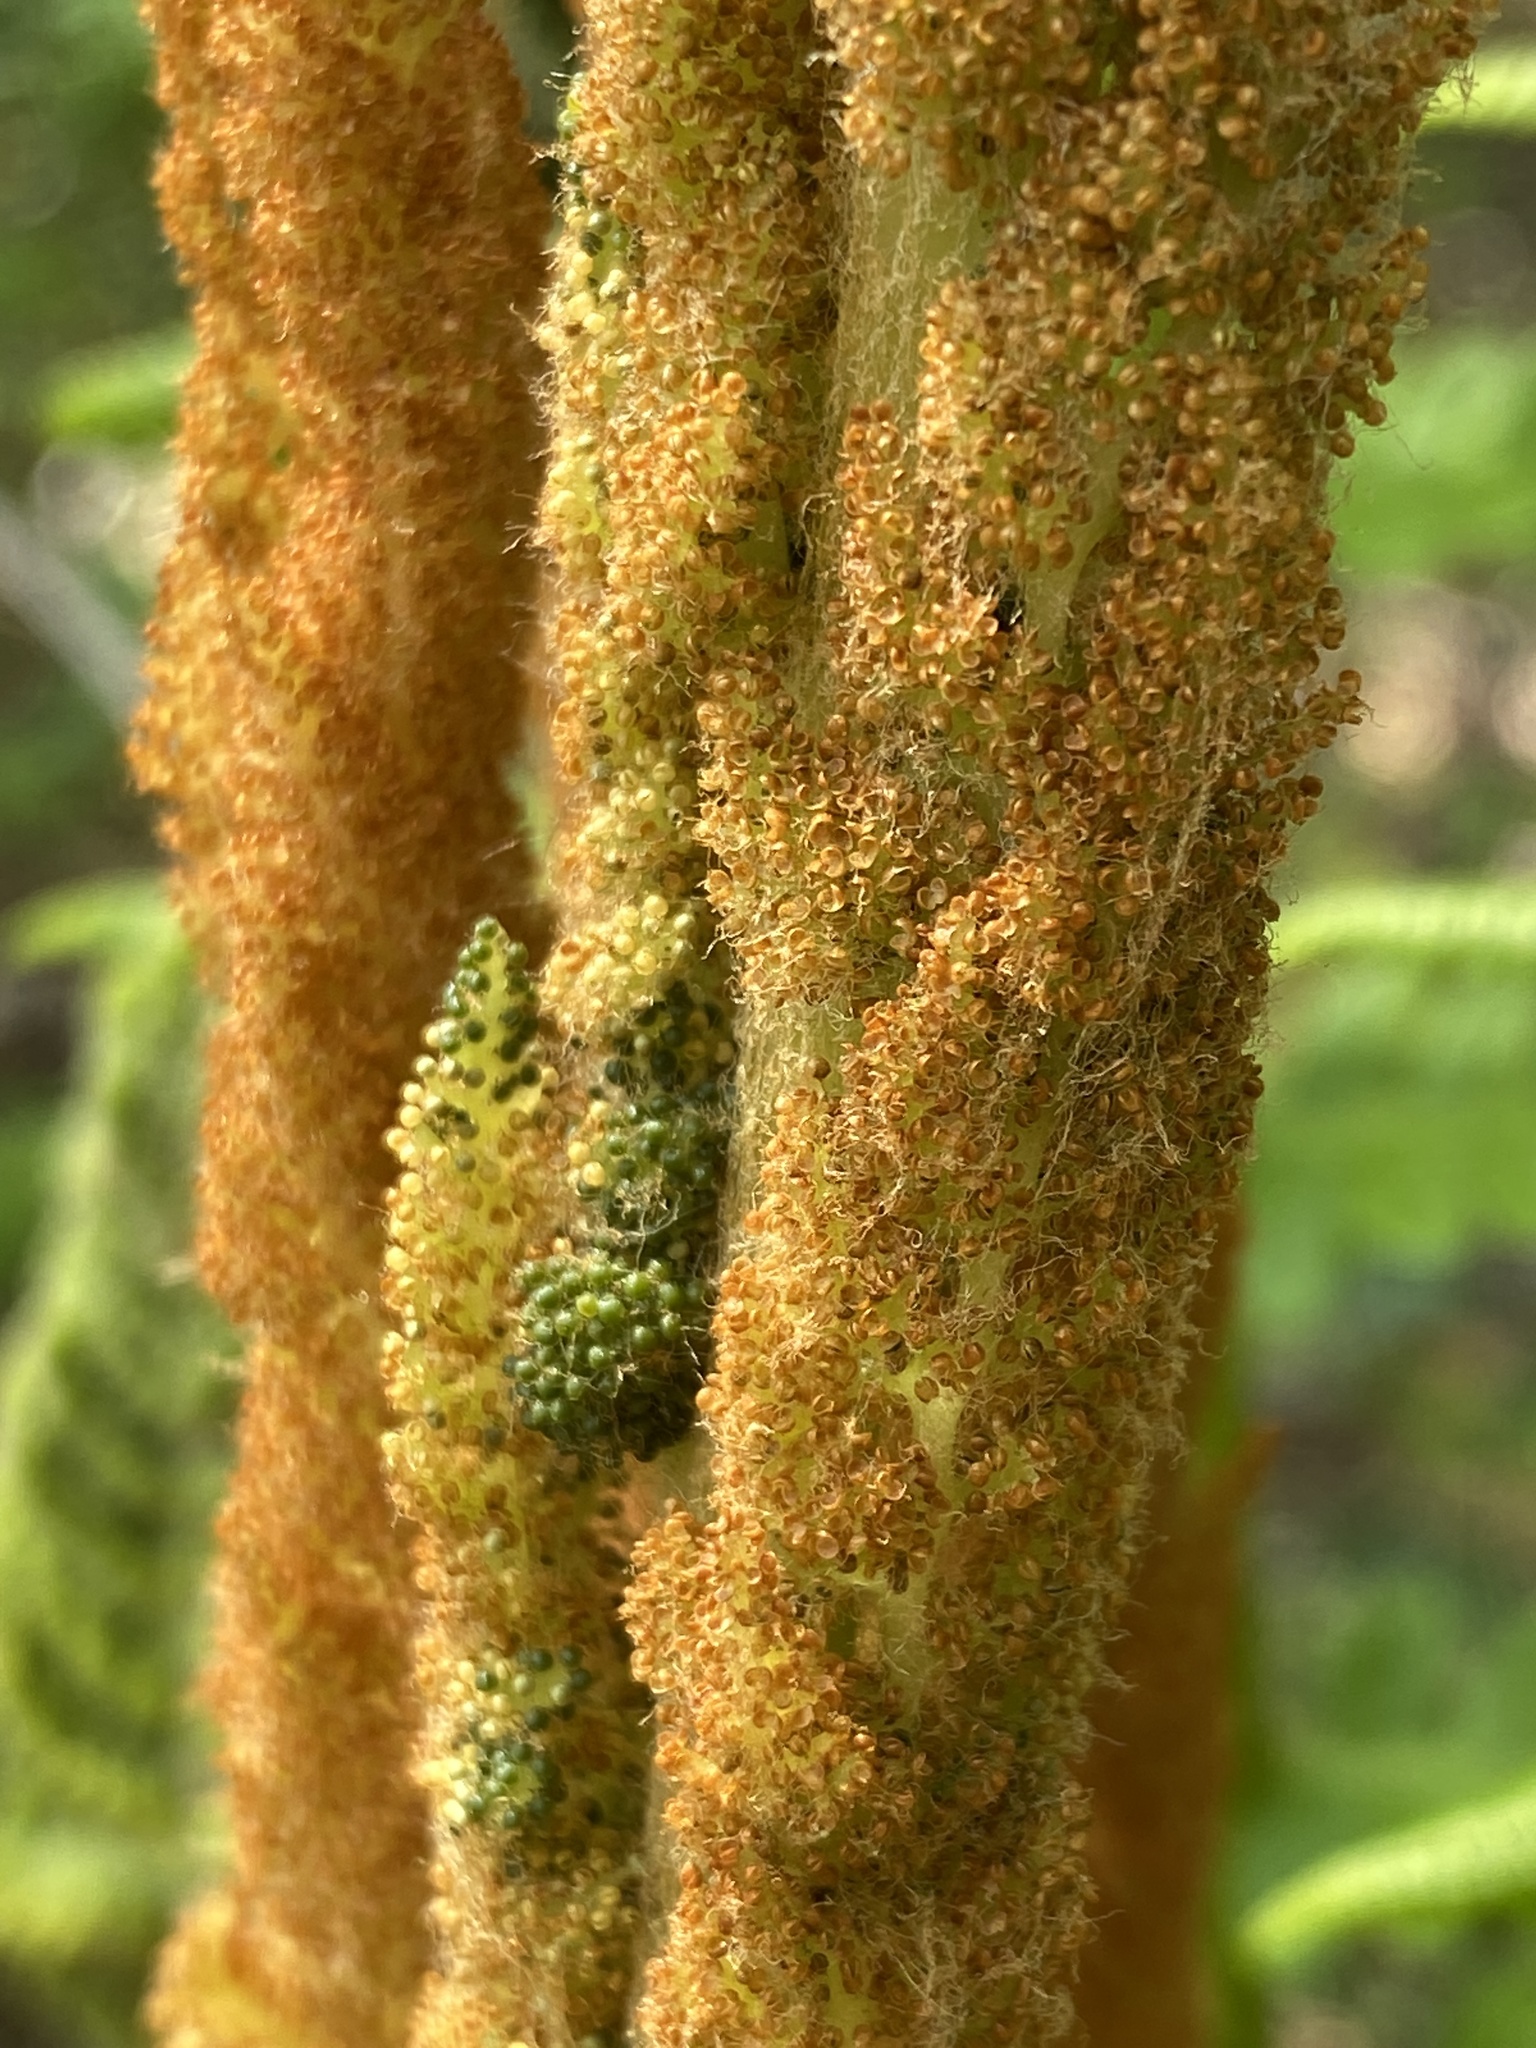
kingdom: Plantae
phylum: Tracheophyta
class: Polypodiopsida
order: Osmundales
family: Osmundaceae
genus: Osmundastrum
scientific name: Osmundastrum cinnamomeum
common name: Cinnamon fern
